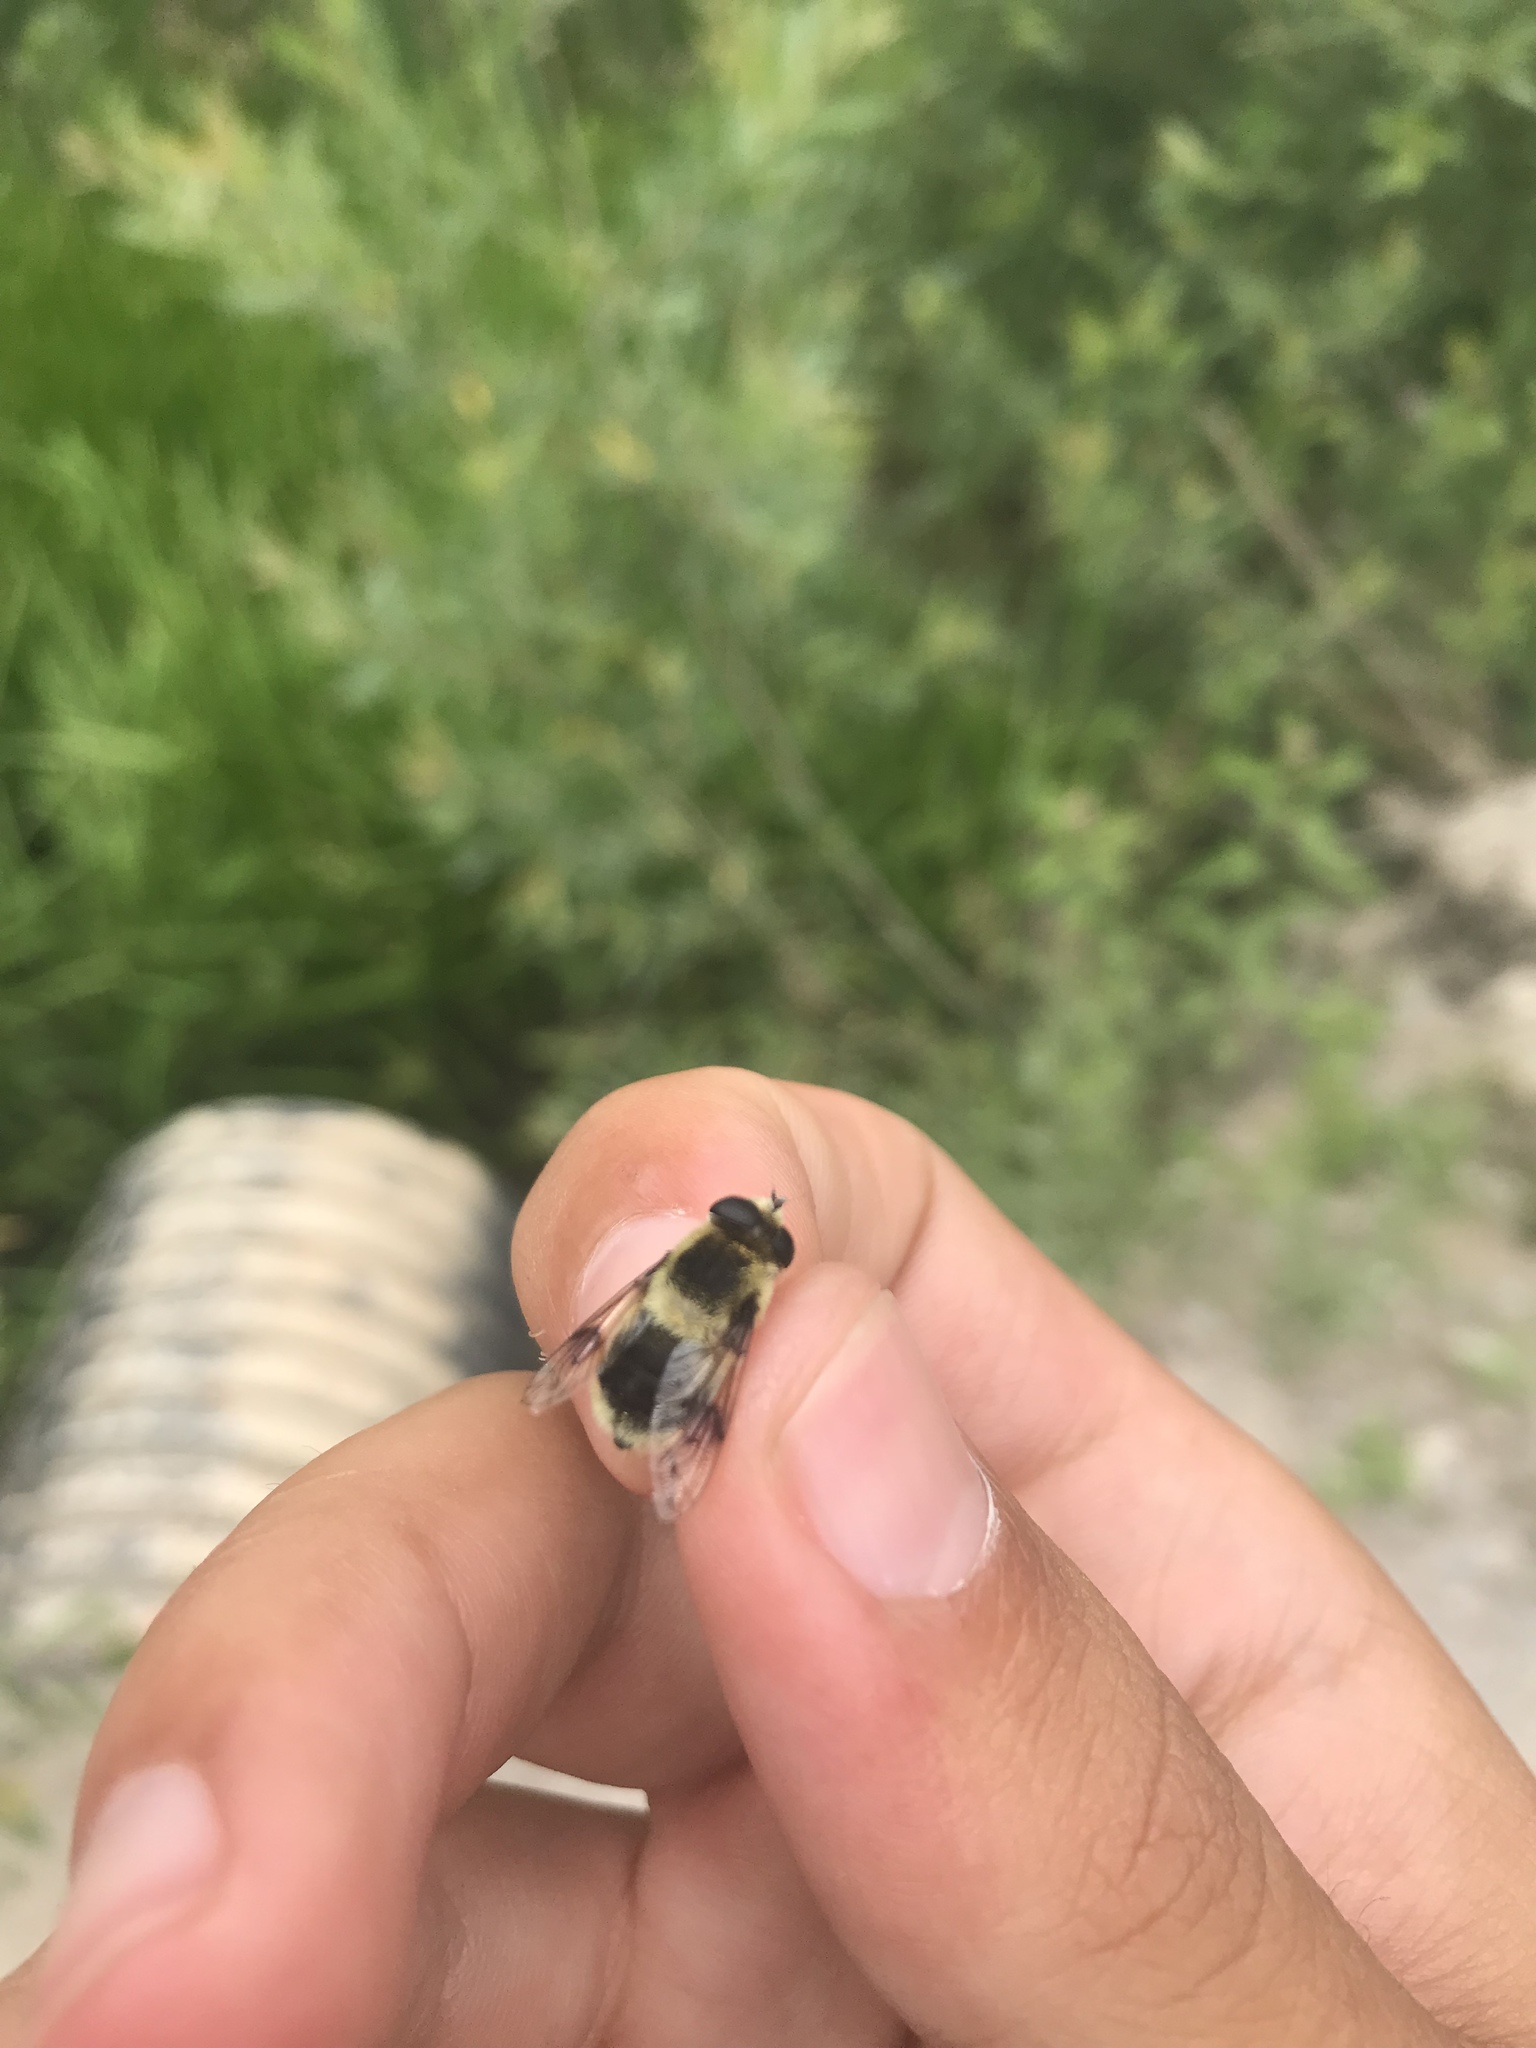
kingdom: Animalia
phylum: Arthropoda
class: Insecta
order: Diptera
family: Syrphidae
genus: Eristalis
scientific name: Eristalis anthophorina
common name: Orange-spotted drone fly
